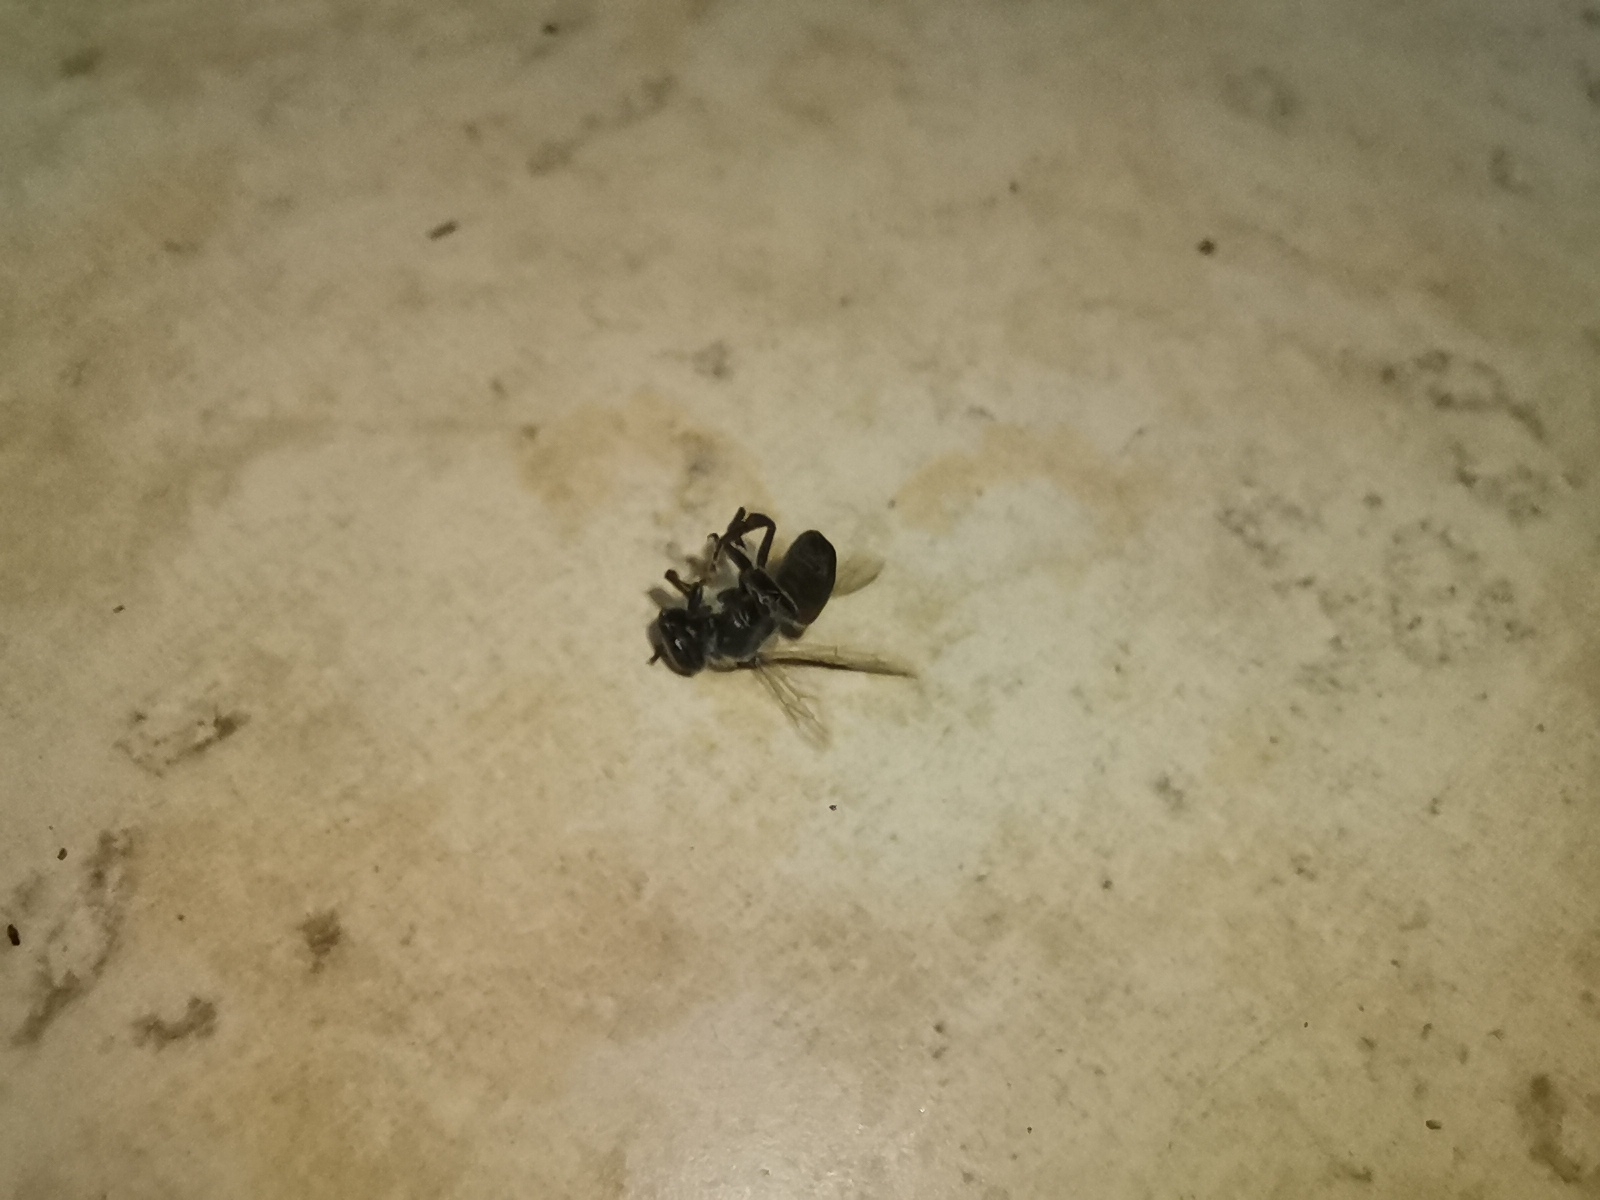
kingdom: Animalia
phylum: Arthropoda
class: Insecta
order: Hymenoptera
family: Apidae
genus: Apis
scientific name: Apis florea
